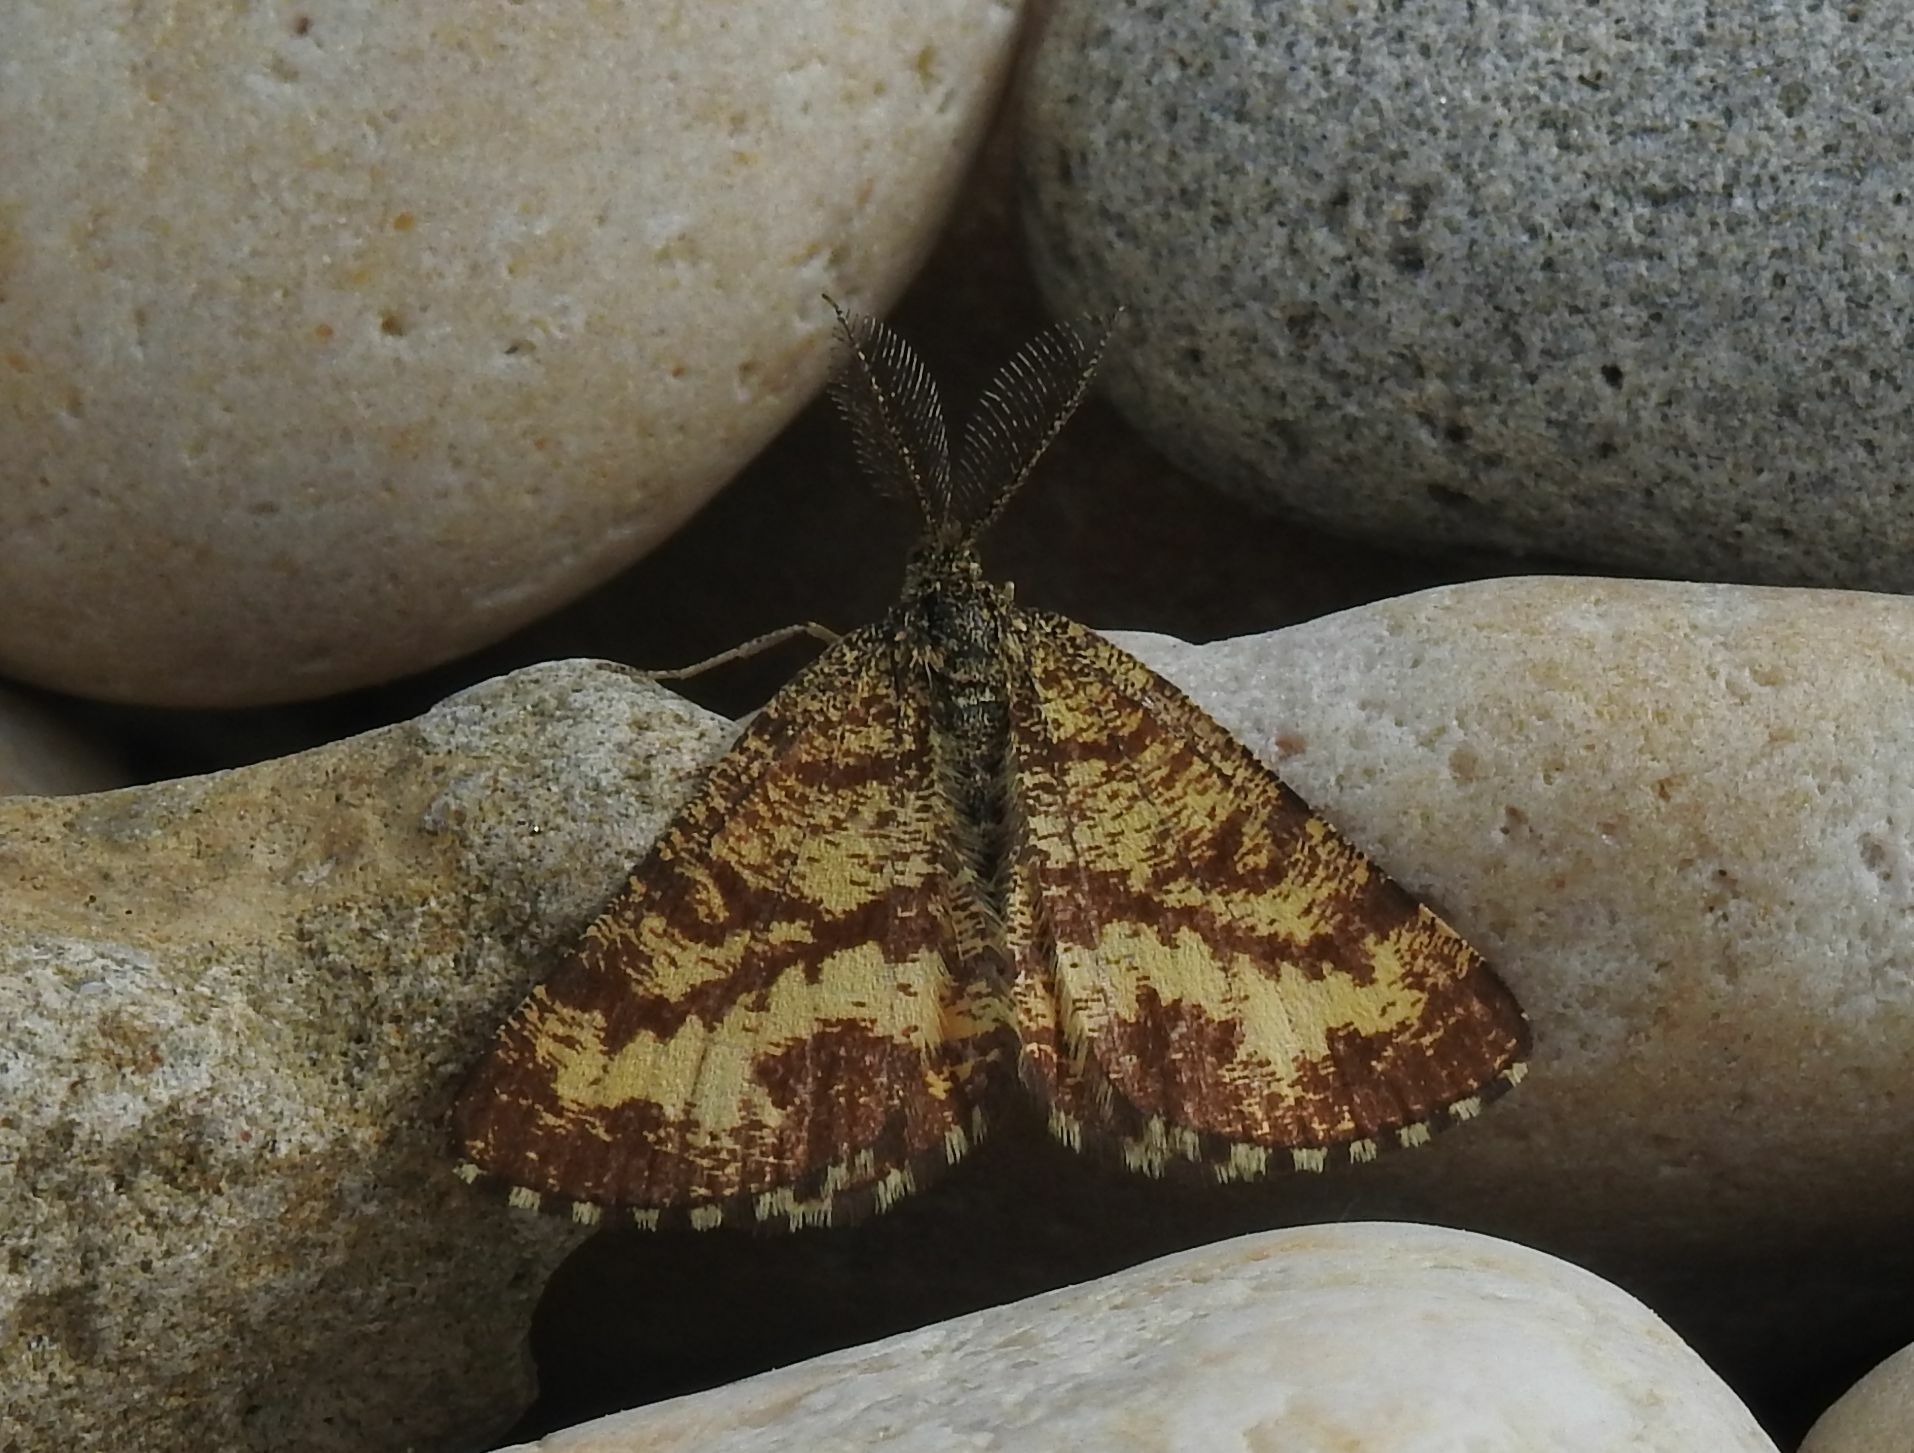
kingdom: Animalia
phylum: Arthropoda
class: Insecta
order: Lepidoptera
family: Geometridae
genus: Ematurga
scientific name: Ematurga atomaria
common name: Common heath
